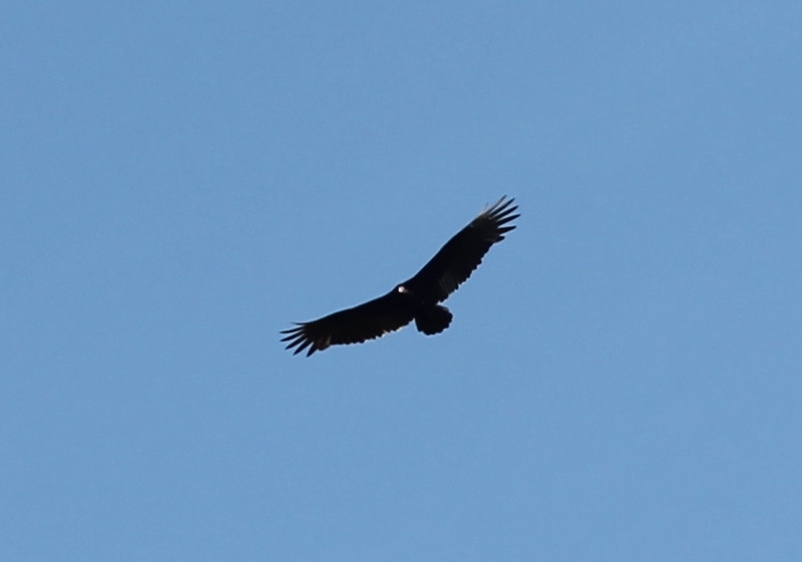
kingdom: Animalia
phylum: Chordata
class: Aves
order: Accipitriformes
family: Cathartidae
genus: Cathartes
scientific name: Cathartes aura
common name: Turkey vulture
